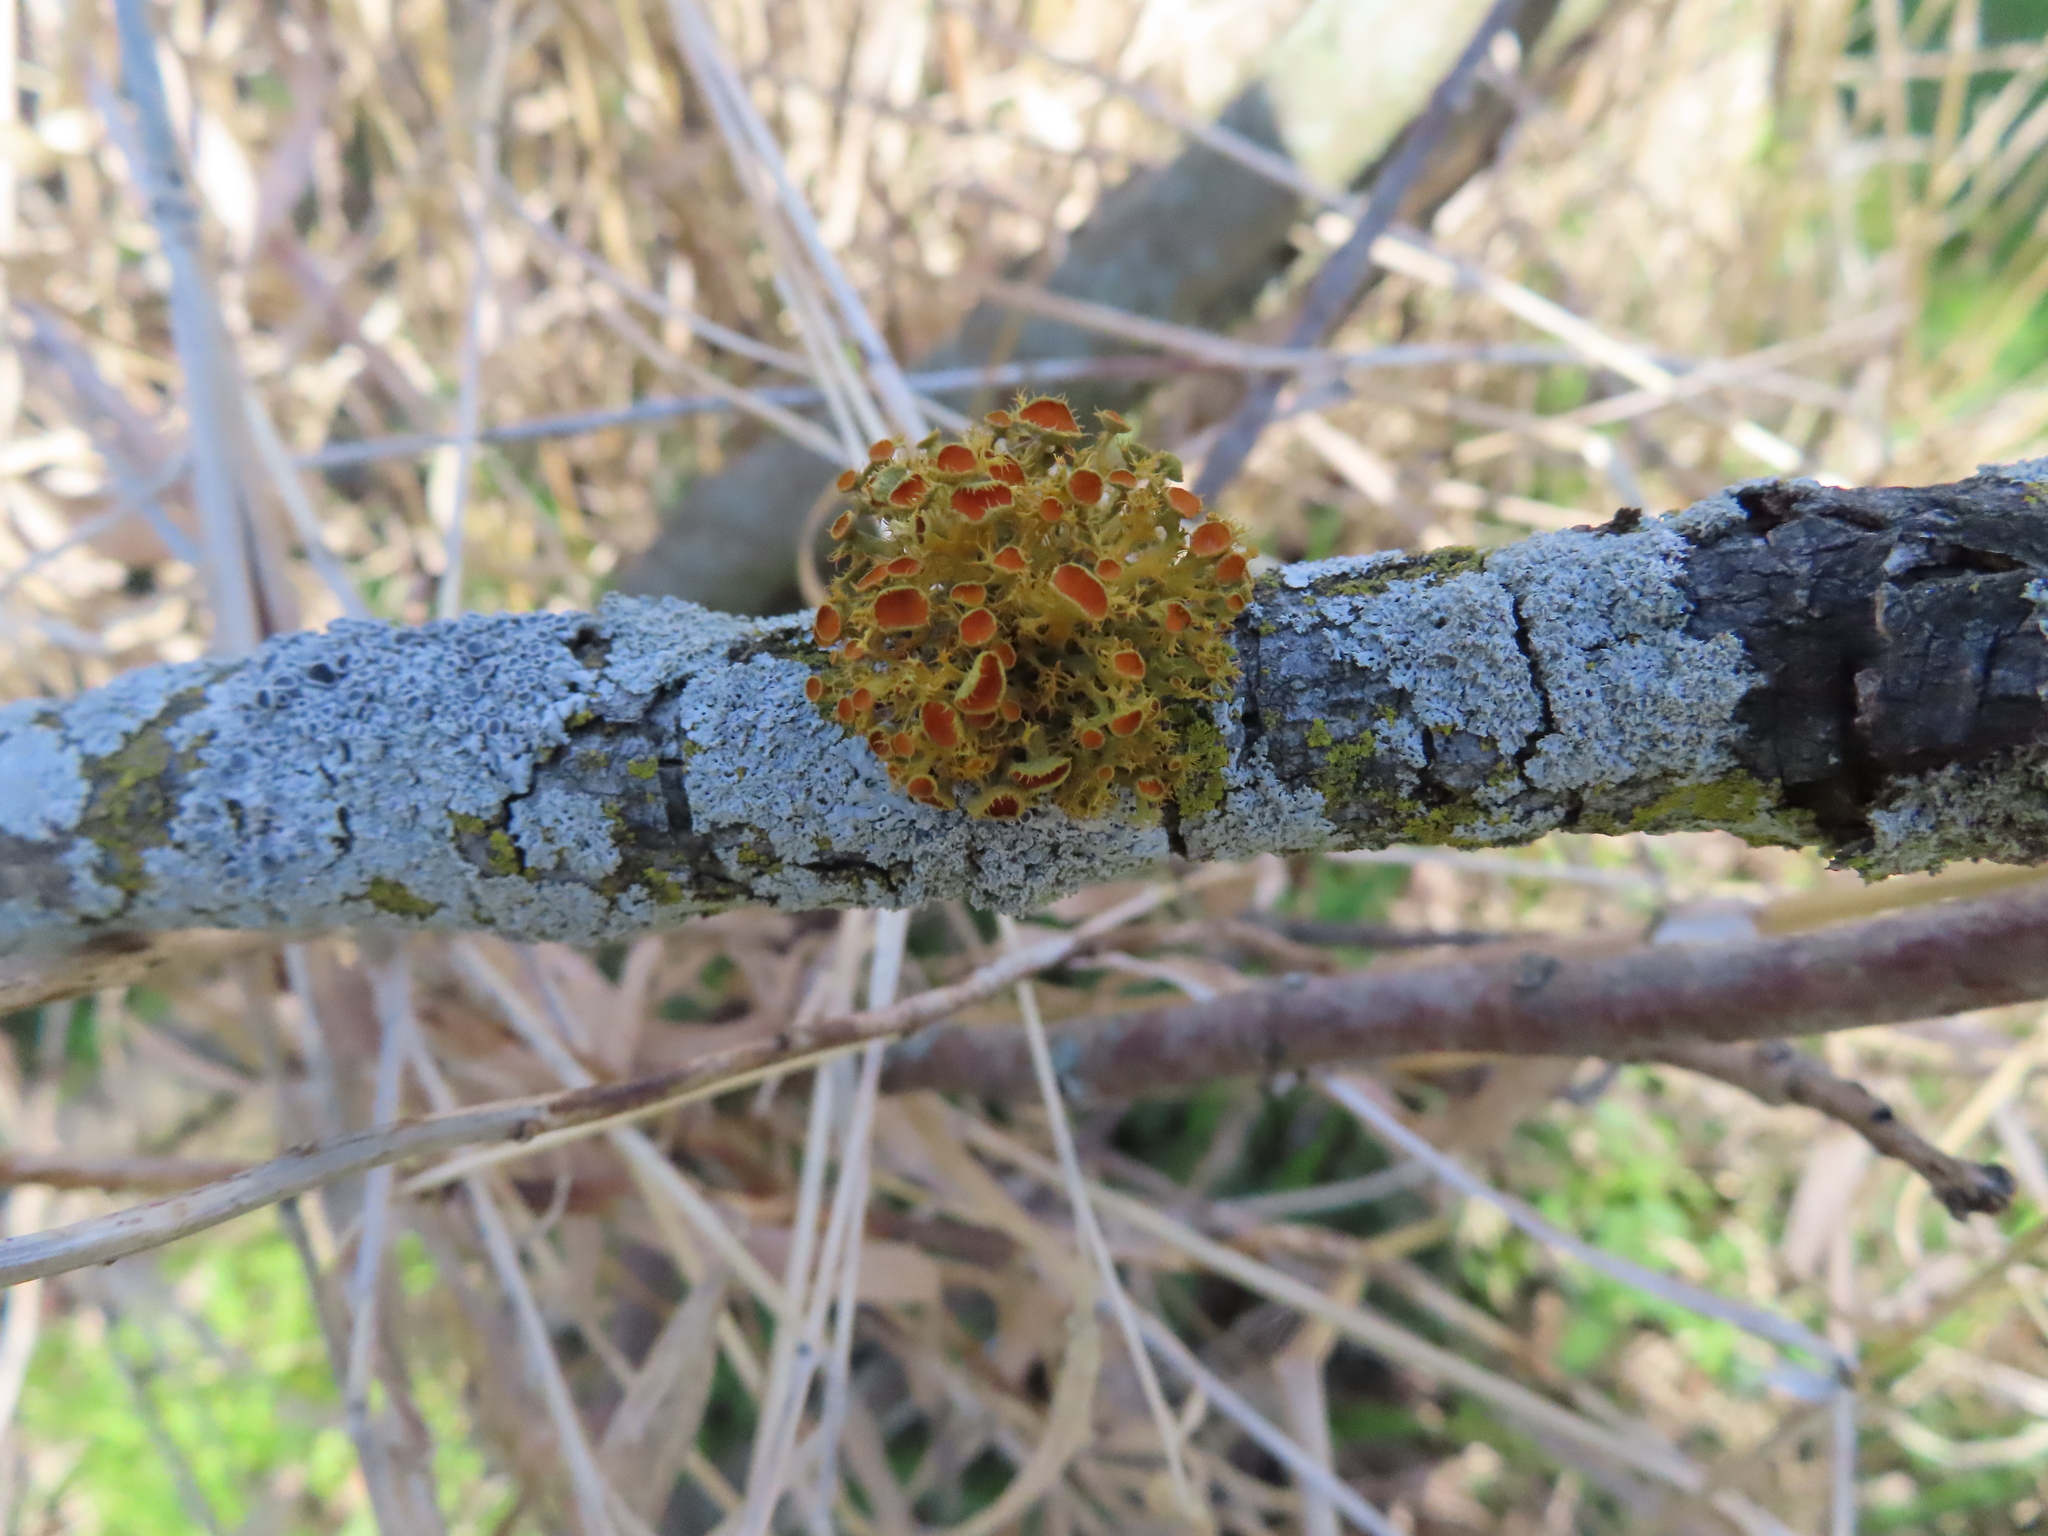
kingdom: Fungi
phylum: Ascomycota
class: Lecanoromycetes
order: Teloschistales
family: Teloschistaceae
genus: Niorma
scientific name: Niorma chrysophthalma
